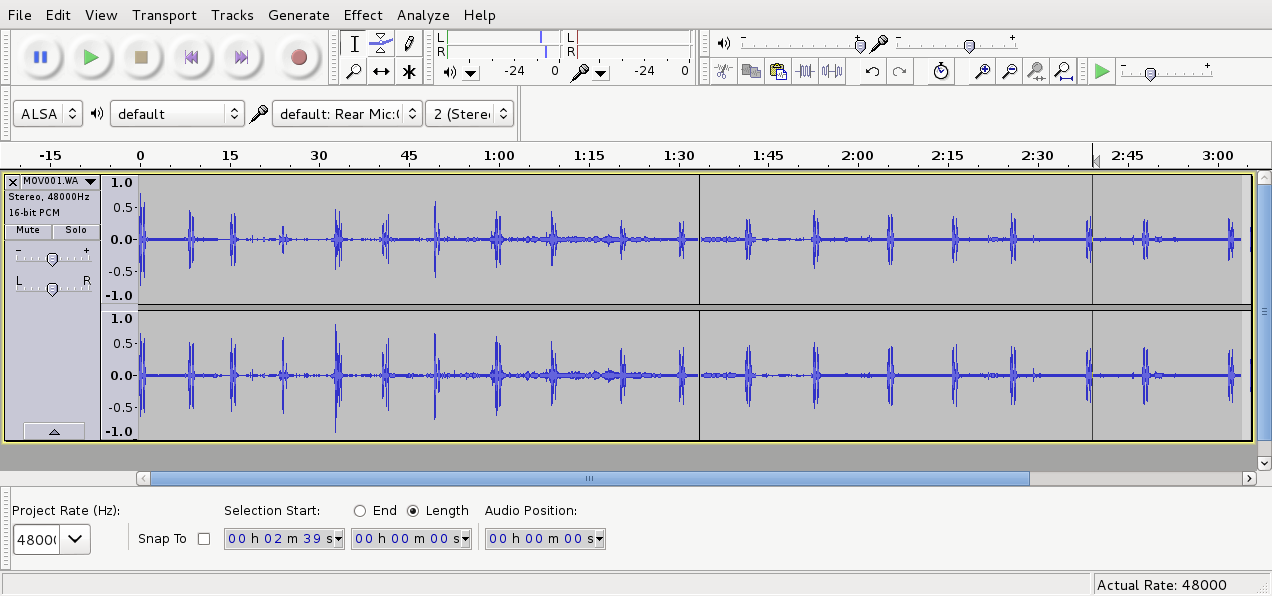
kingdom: Animalia
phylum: Chordata
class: Aves
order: Strigiformes
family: Strigidae
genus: Ninox
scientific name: Ninox novaeseelandiae
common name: Morepork
